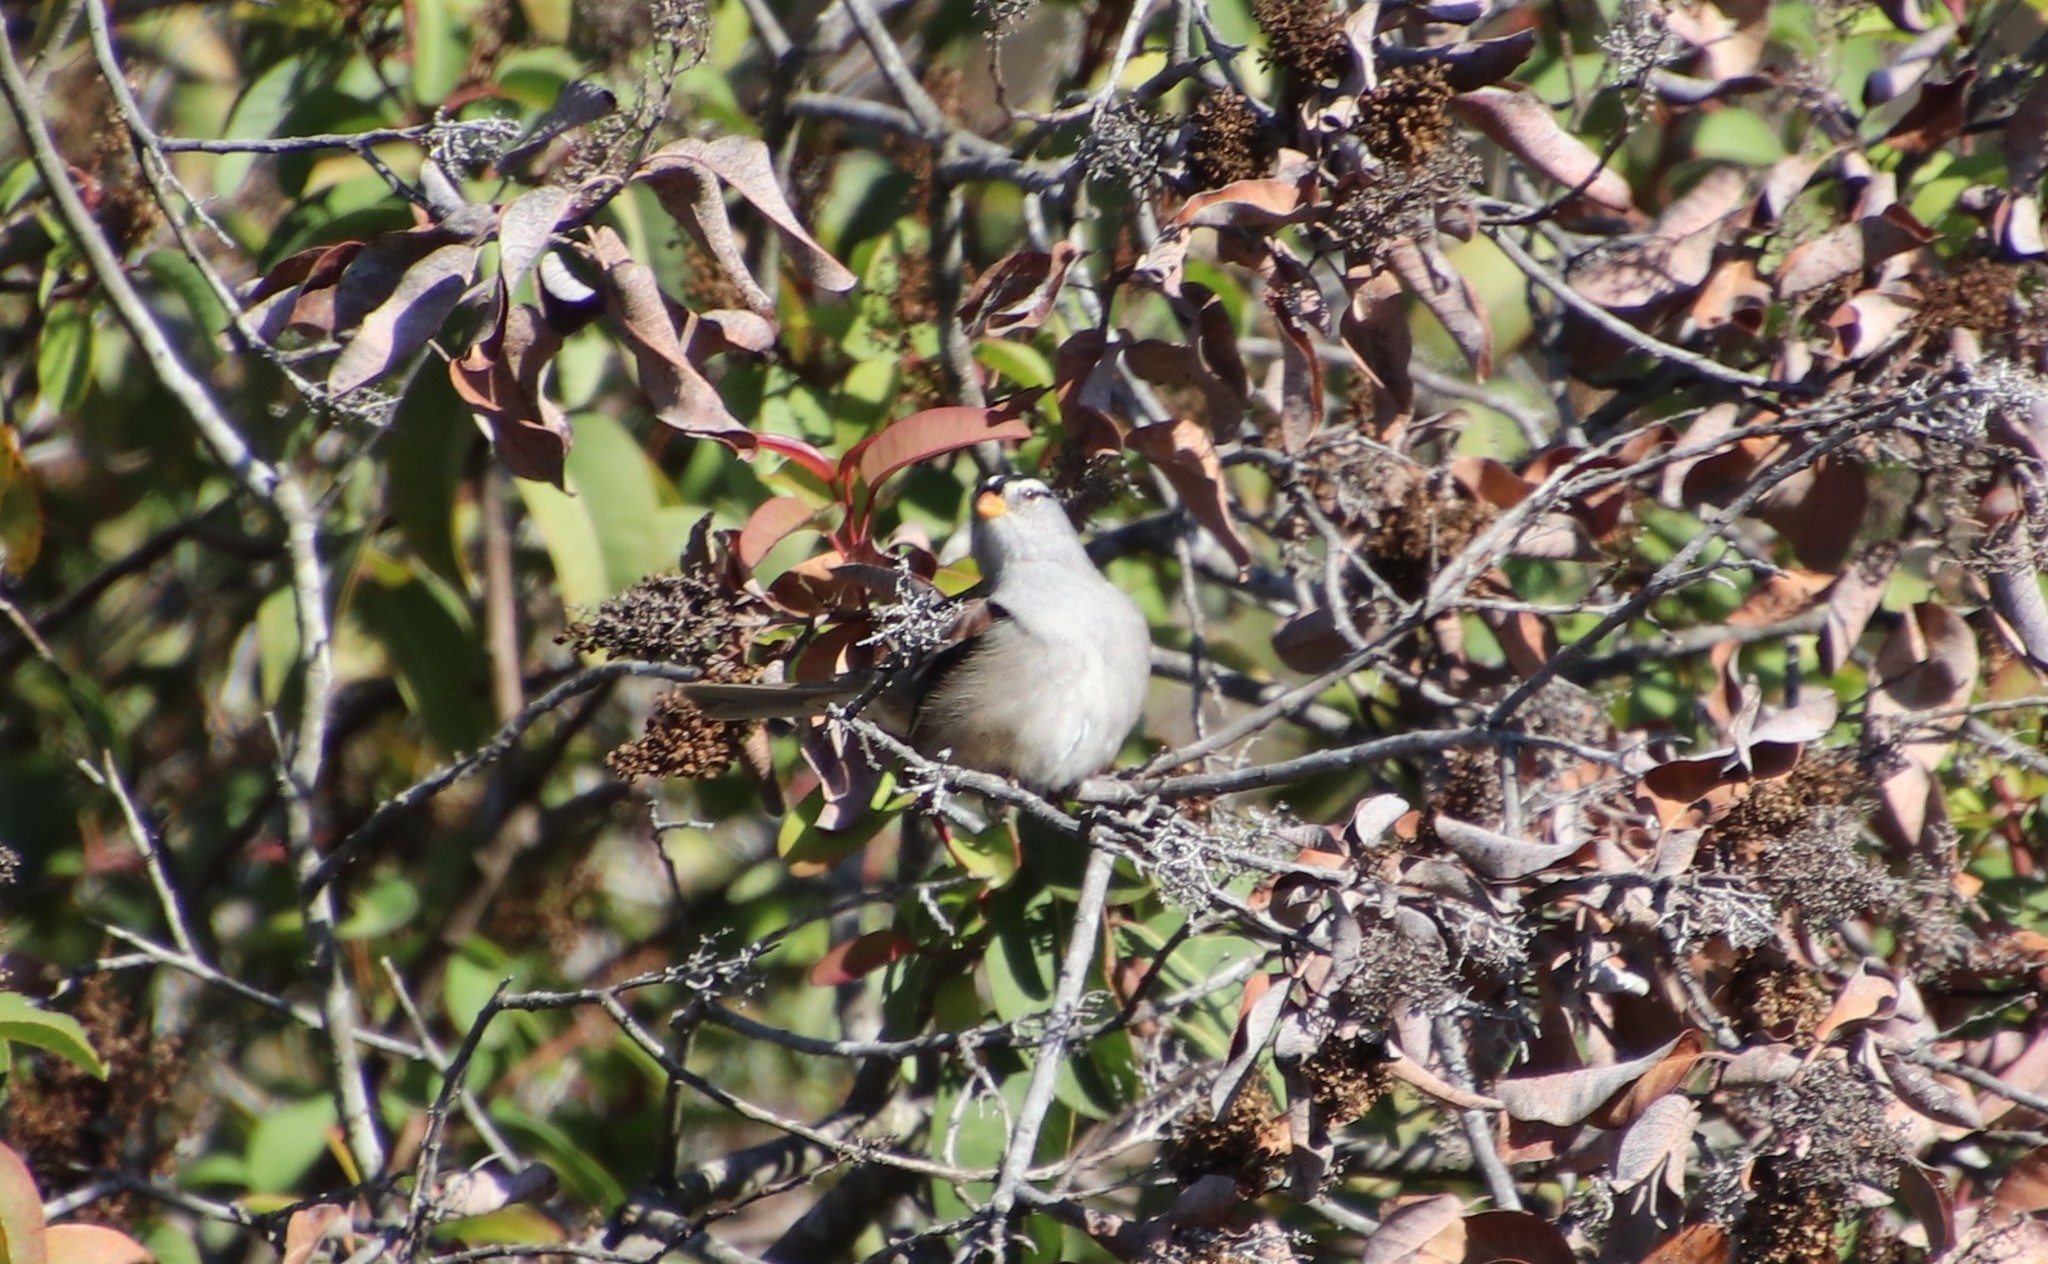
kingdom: Animalia
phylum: Chordata
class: Aves
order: Passeriformes
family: Passerellidae
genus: Zonotrichia
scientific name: Zonotrichia leucophrys
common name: White-crowned sparrow
